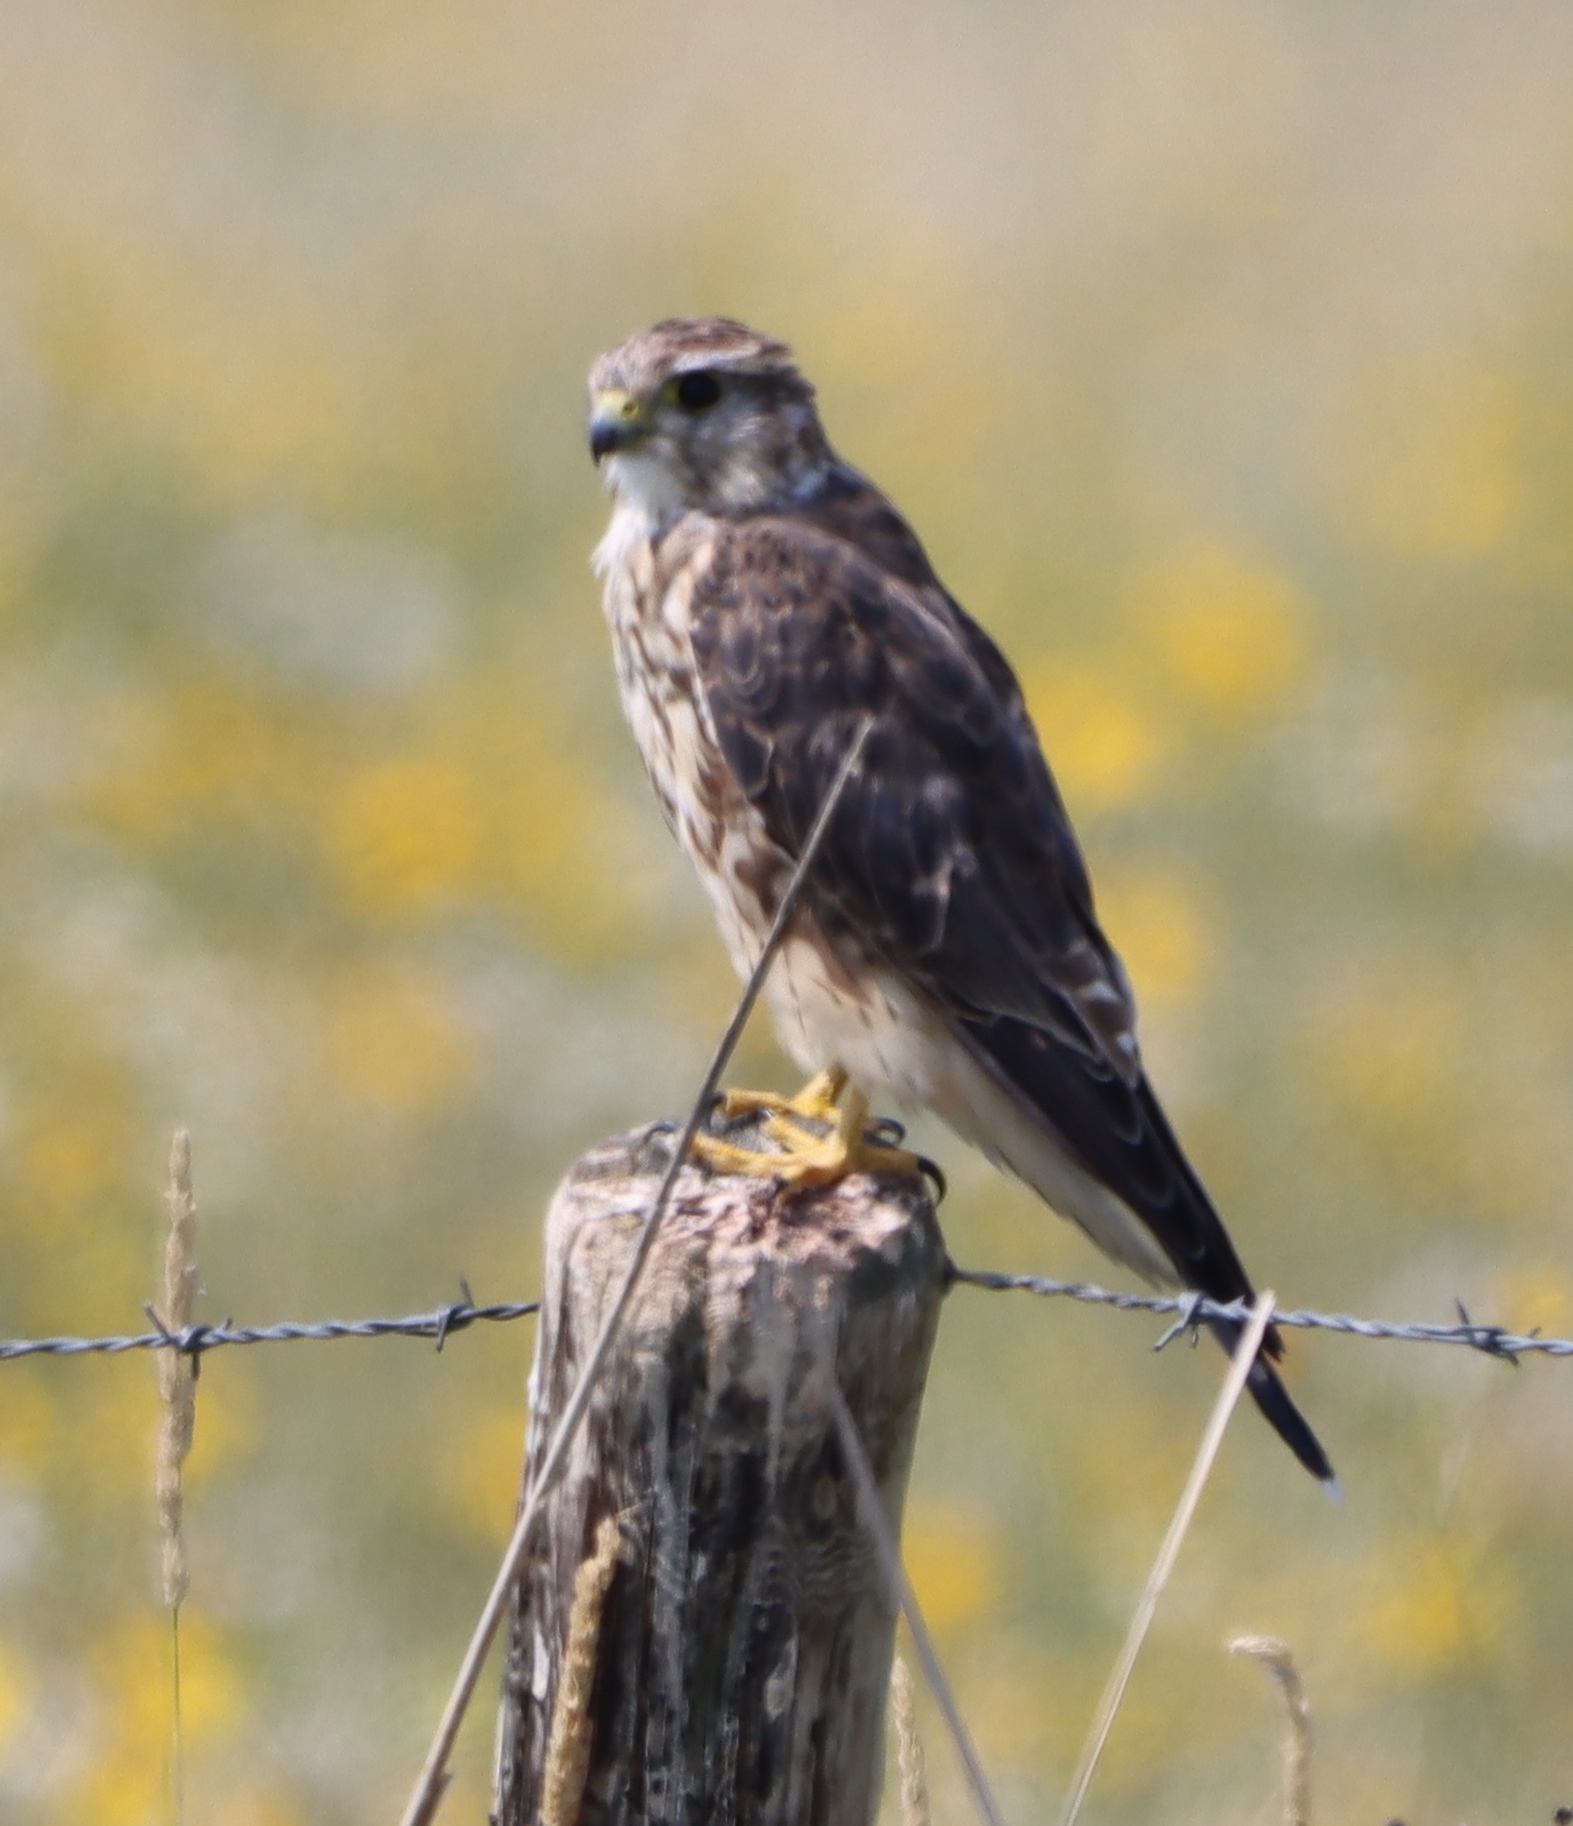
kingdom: Animalia
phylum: Chordata
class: Aves
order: Falconiformes
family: Falconidae
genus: Falco
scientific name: Falco columbarius
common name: Merlin
